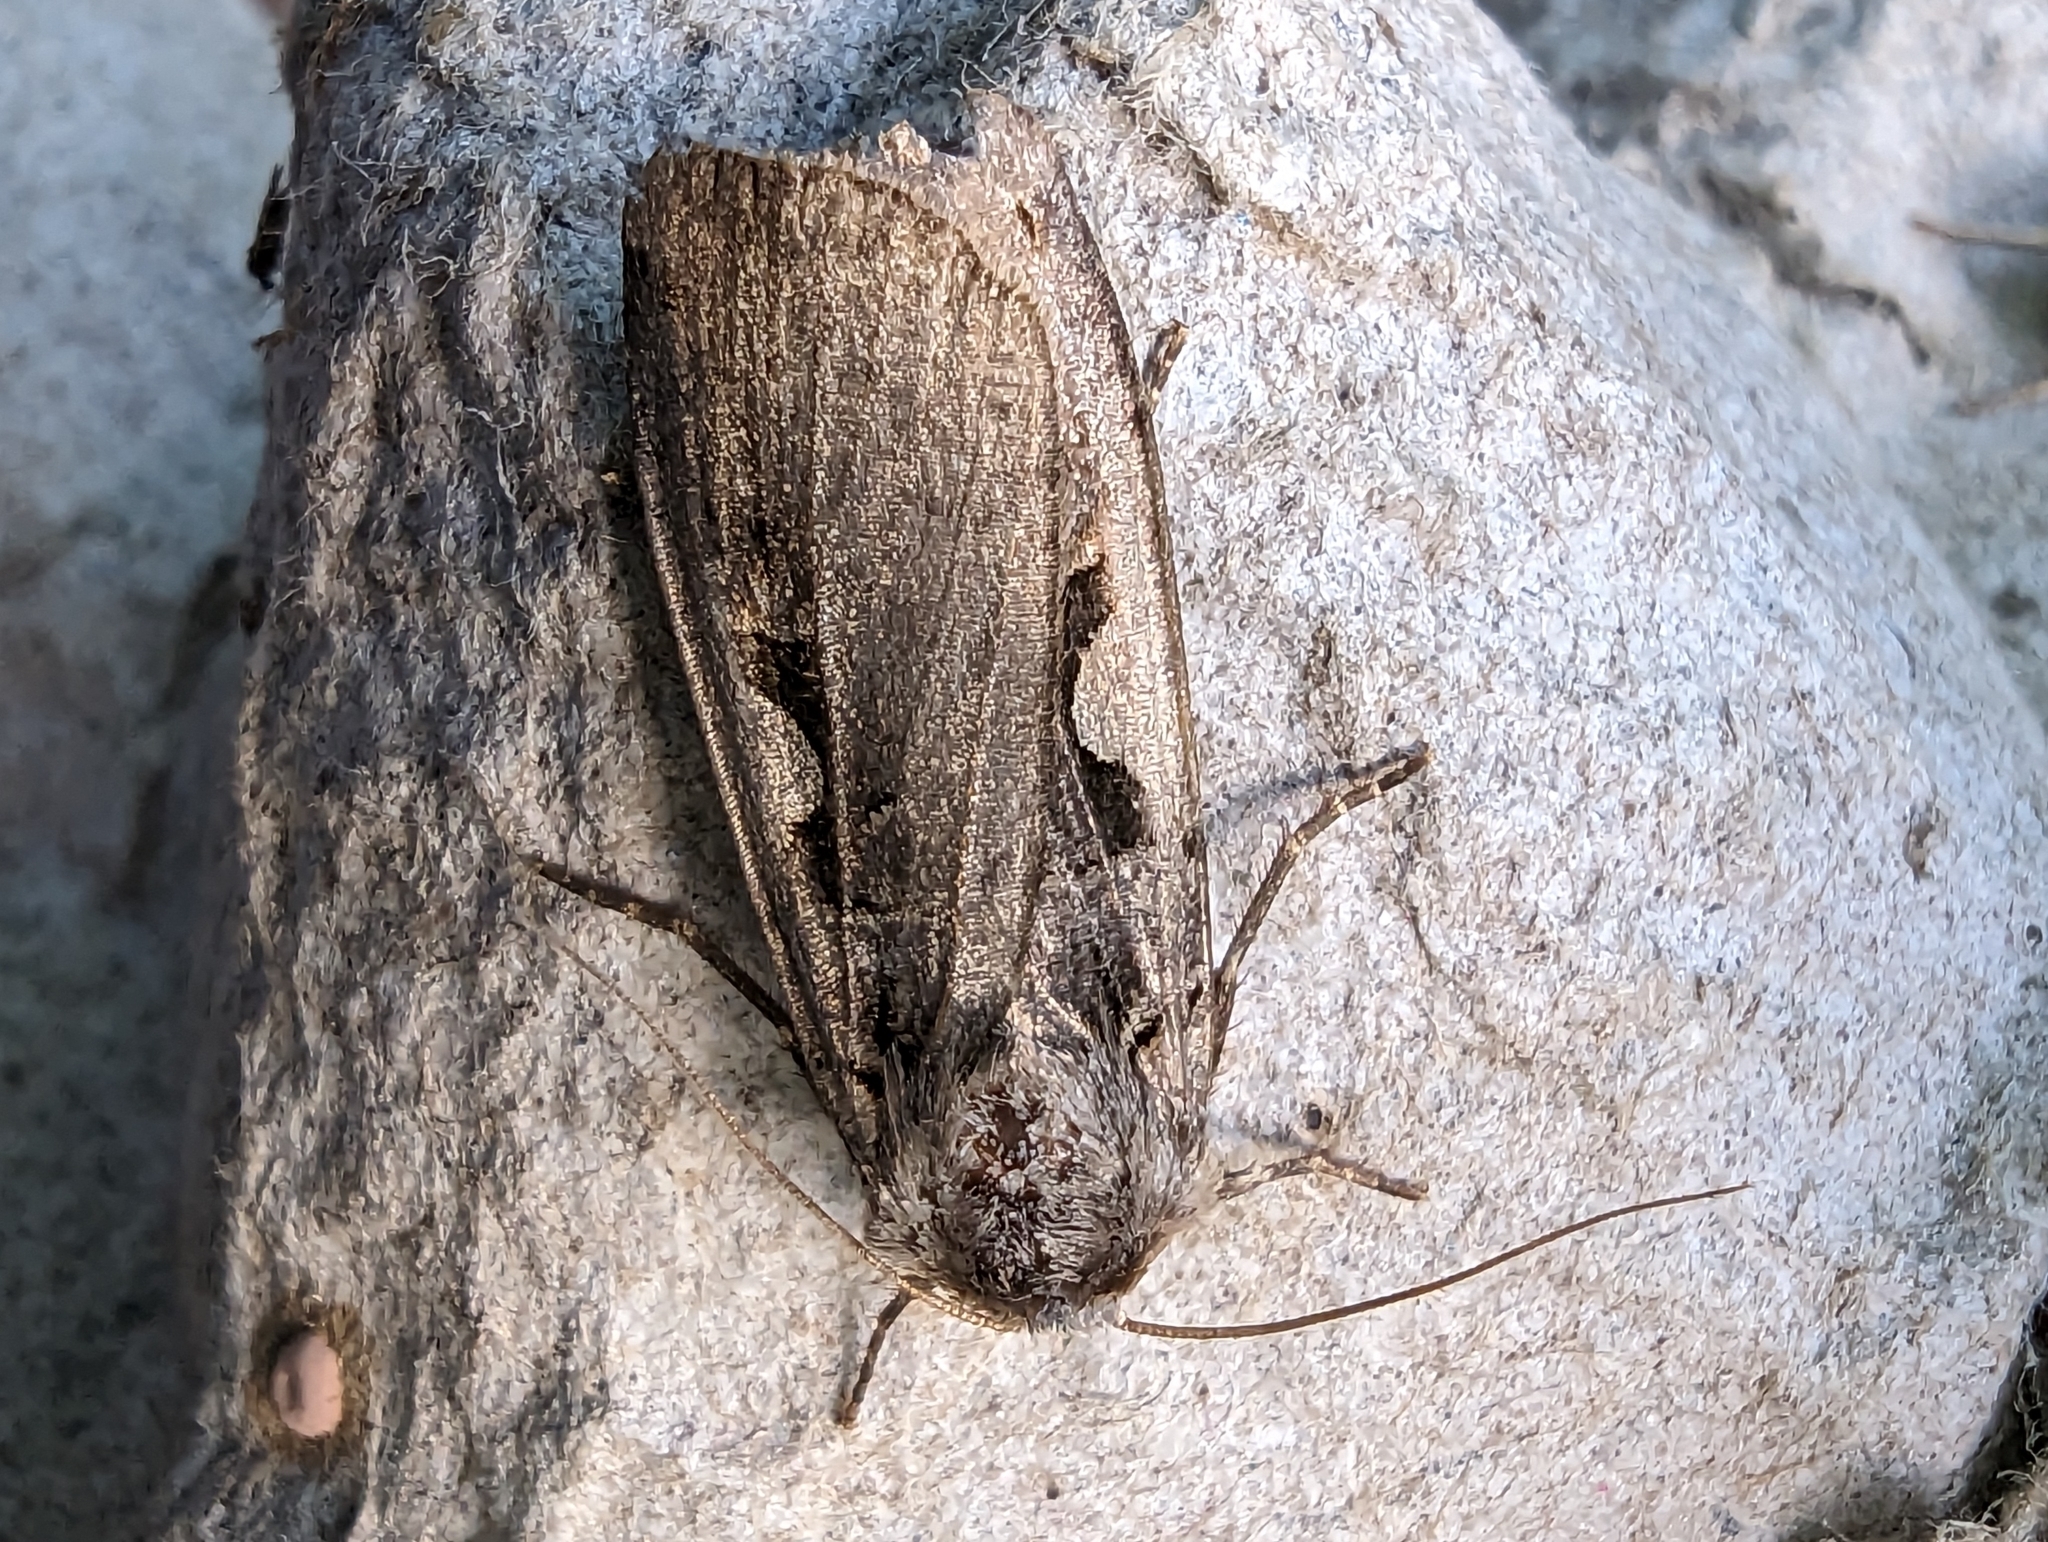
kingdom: Animalia
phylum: Arthropoda
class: Insecta
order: Lepidoptera
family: Noctuidae
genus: Xestia
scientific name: Xestia c-nigrum
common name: Setaceous hebrew character
